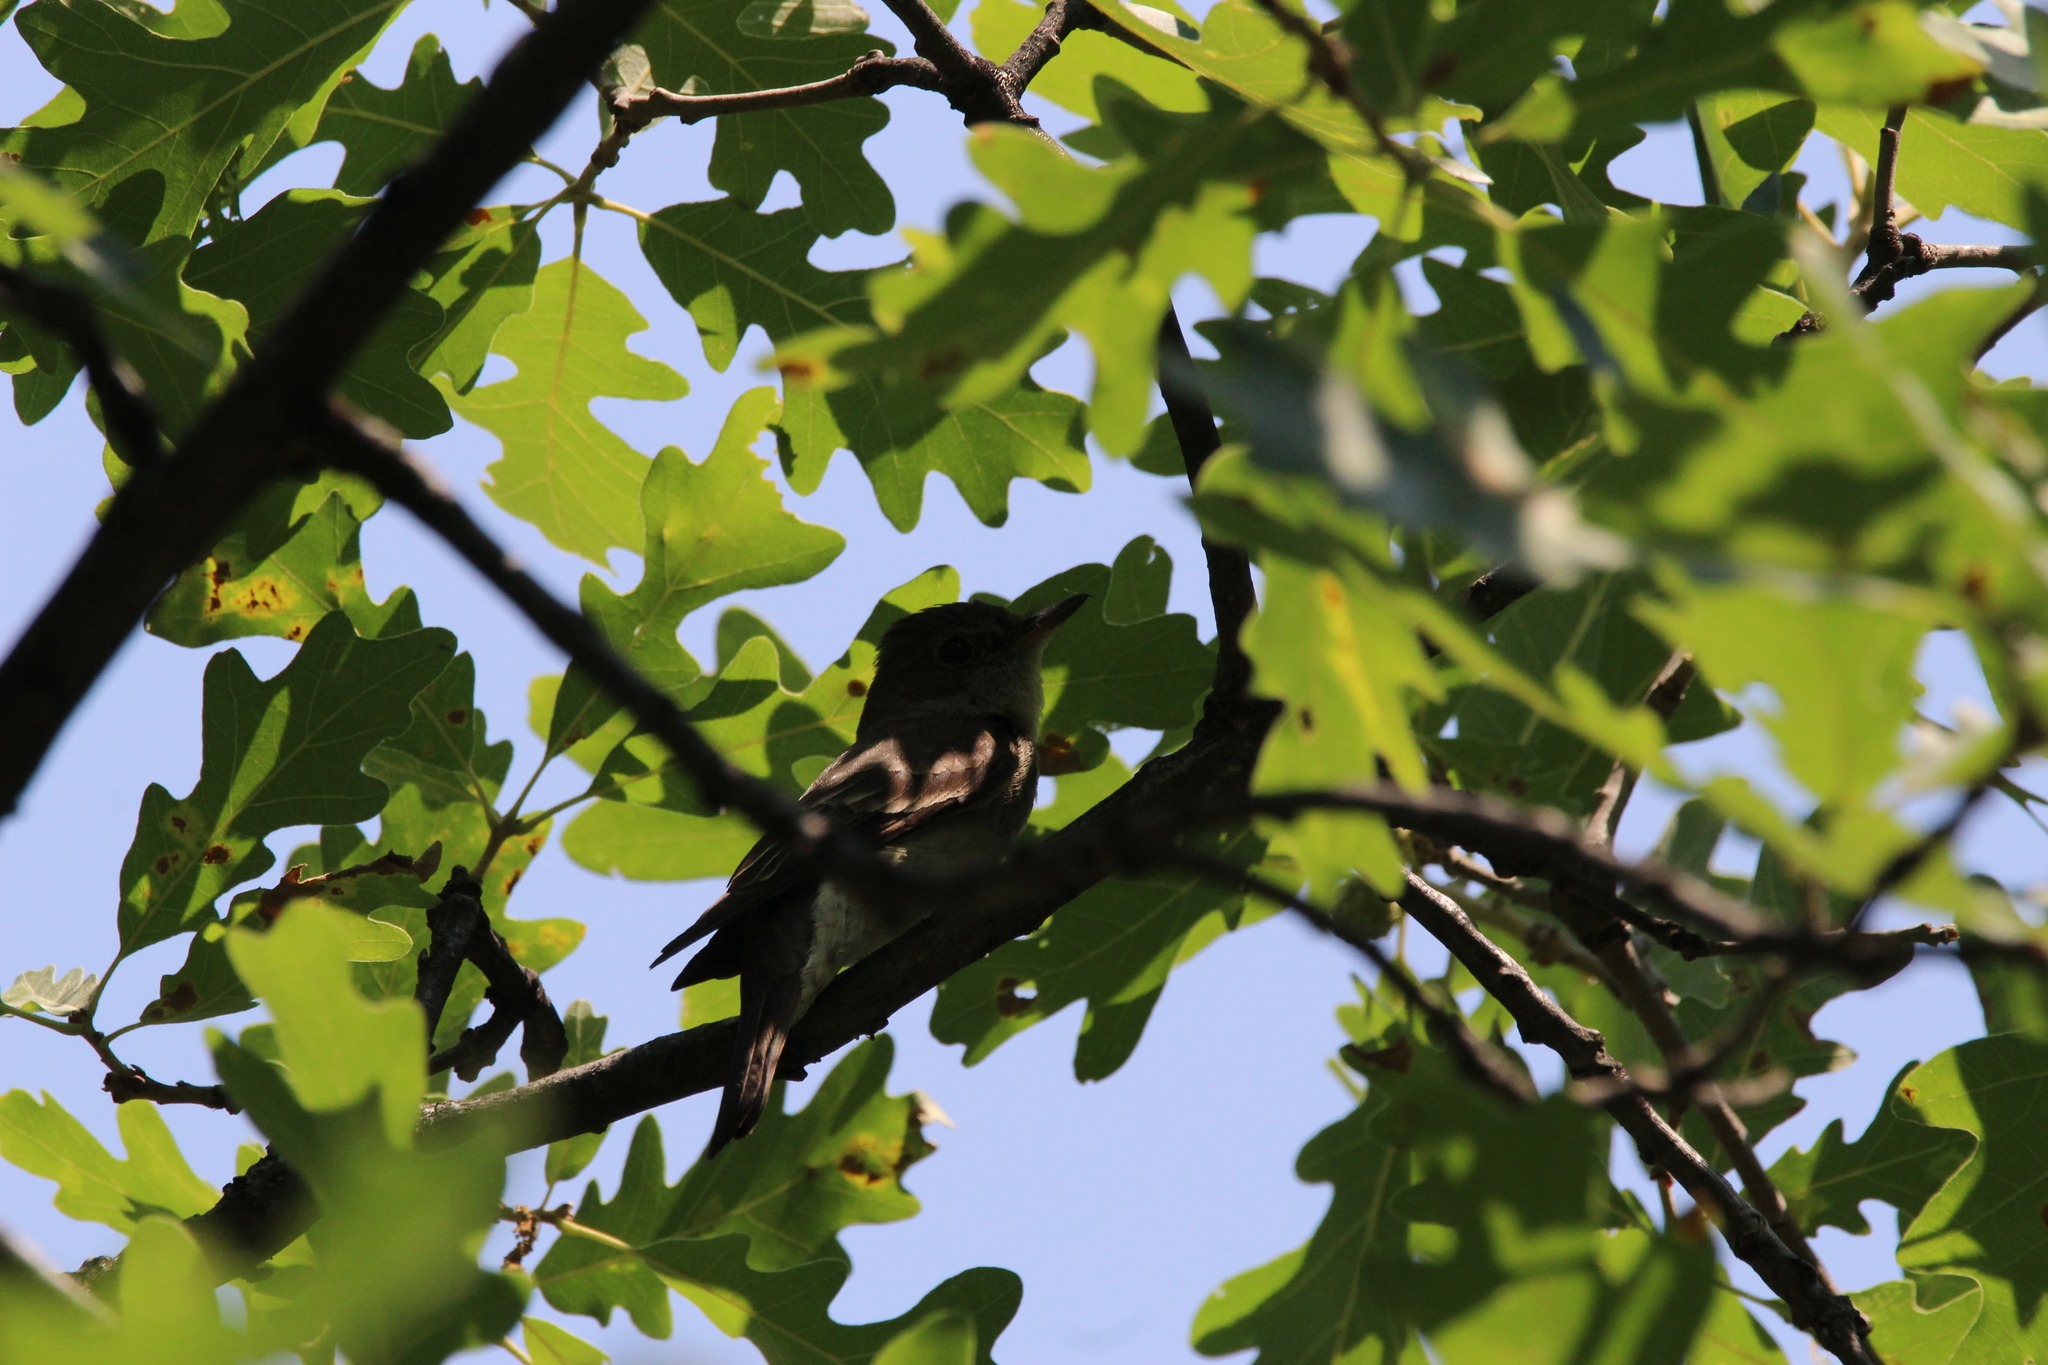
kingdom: Animalia
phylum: Chordata
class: Aves
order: Passeriformes
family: Tyrannidae
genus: Contopus
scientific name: Contopus sordidulus
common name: Western wood-pewee
